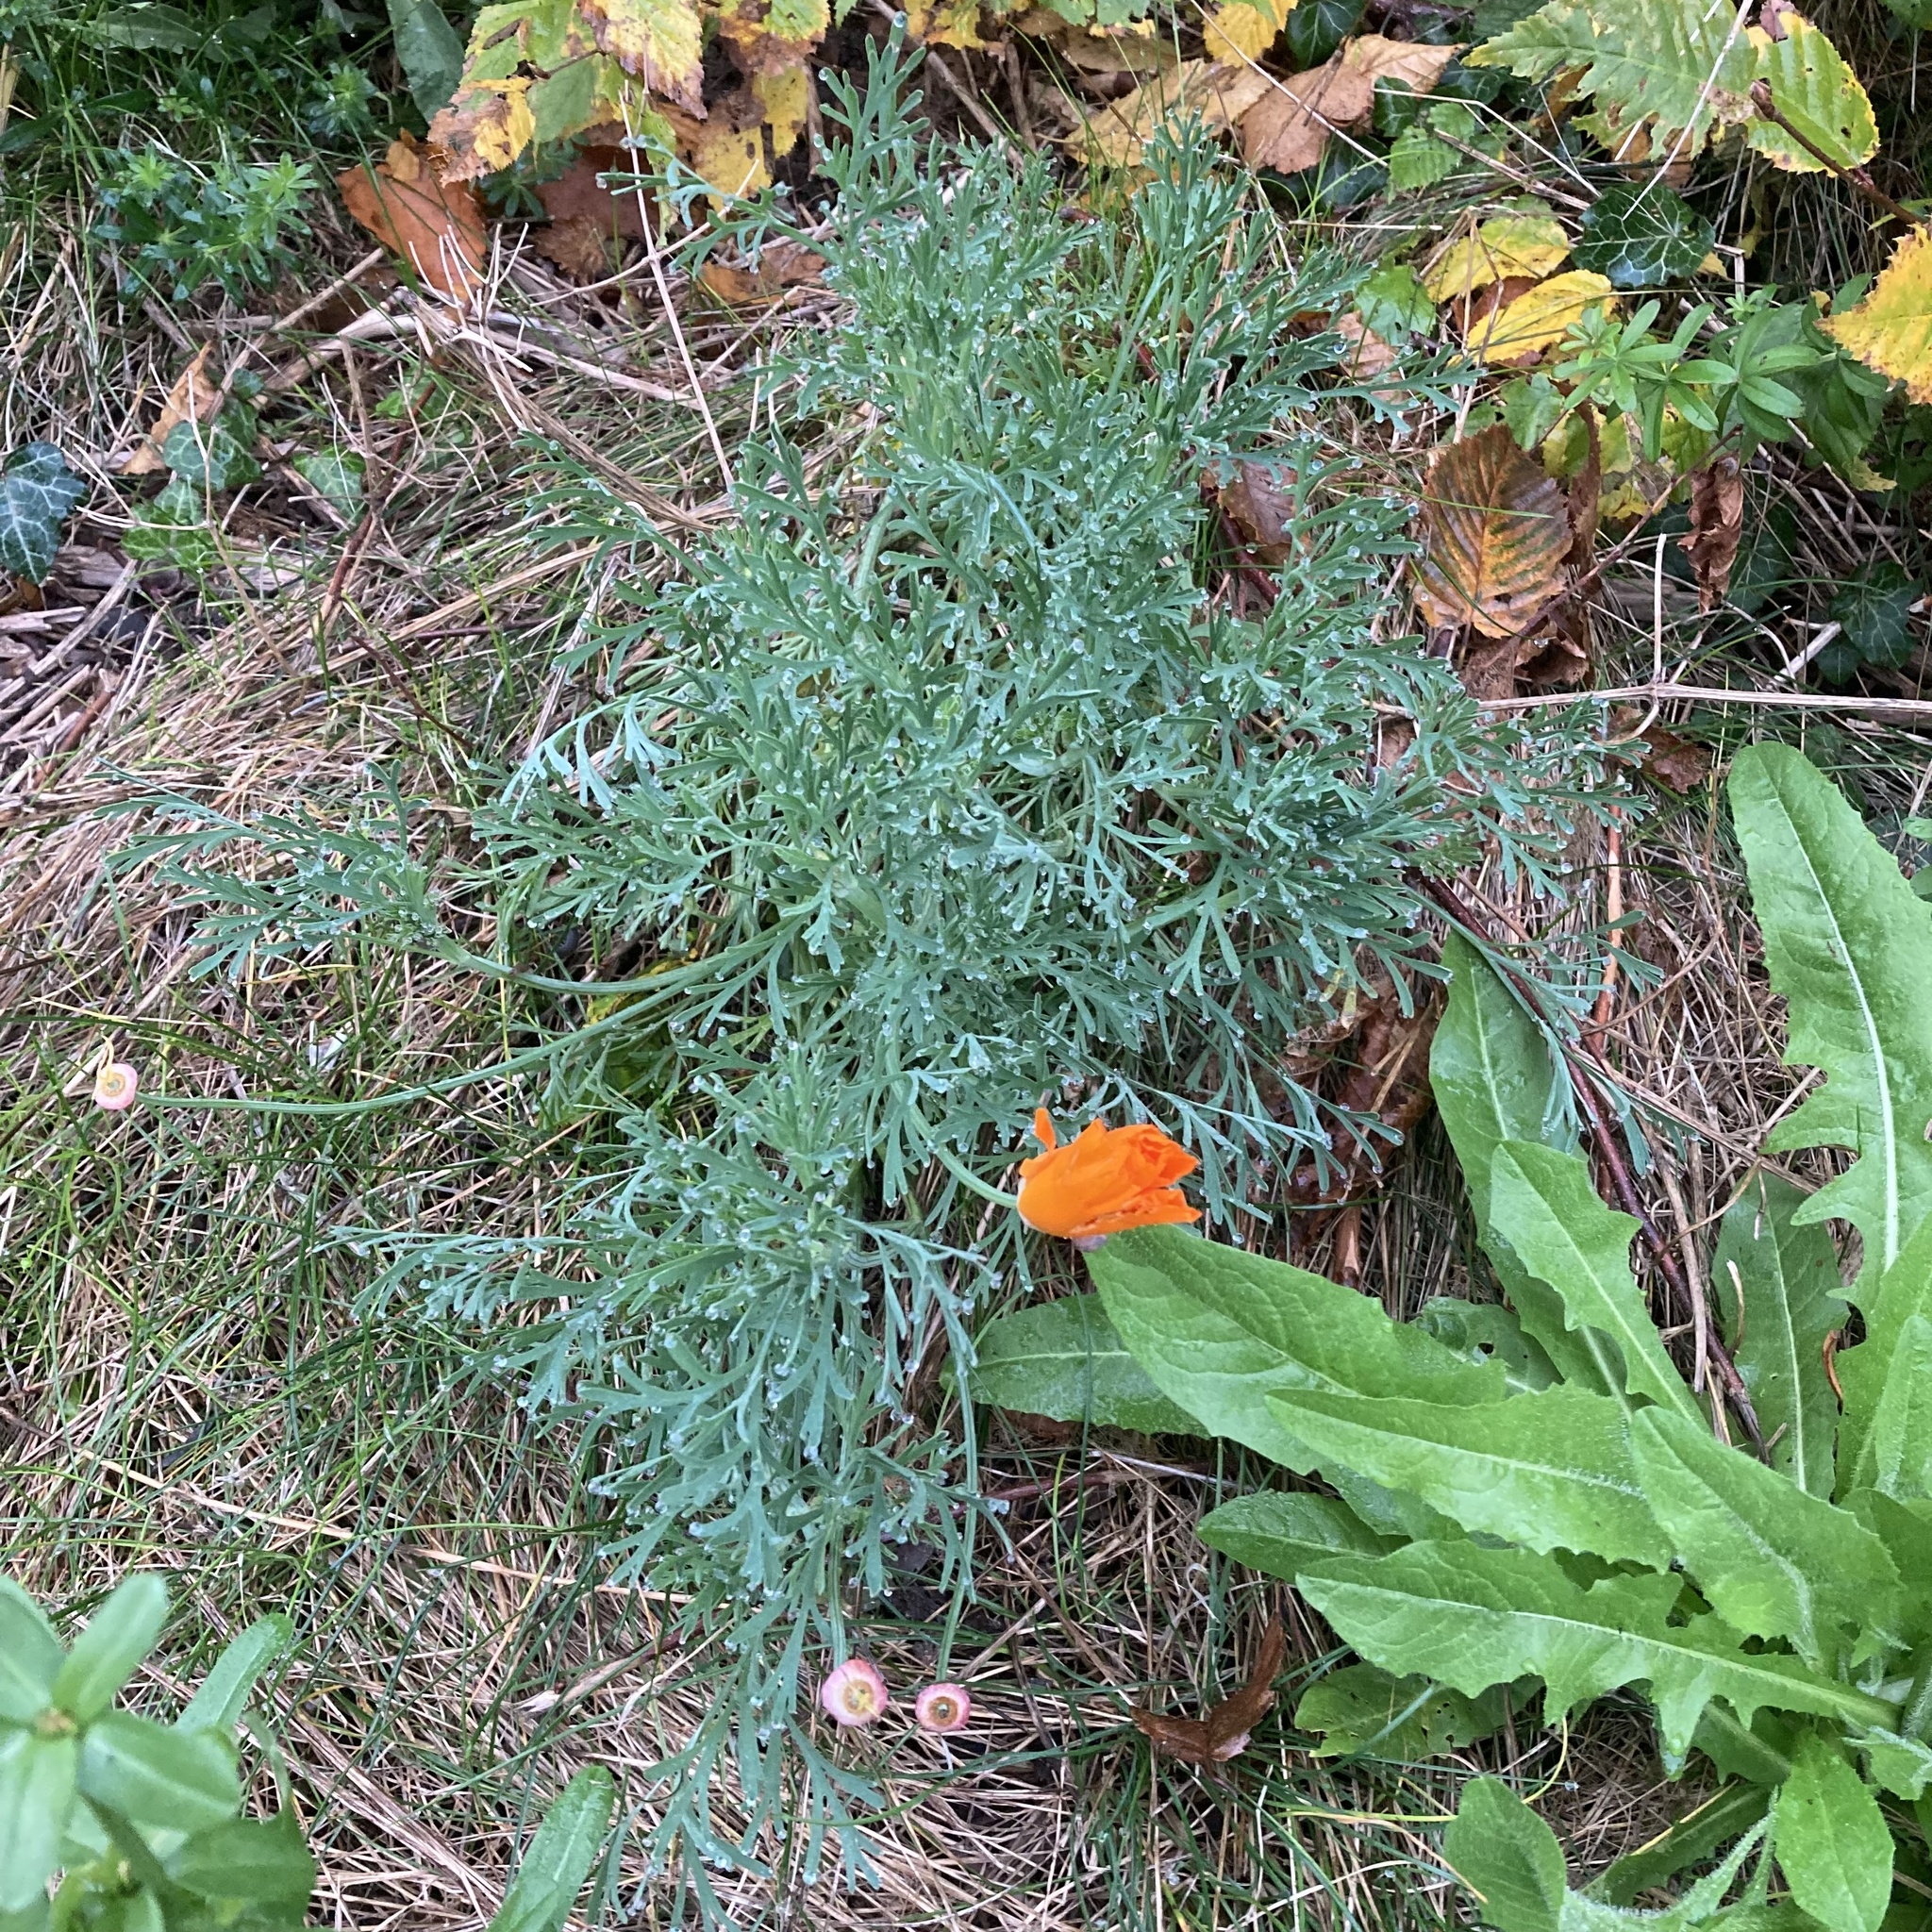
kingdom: Plantae
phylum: Tracheophyta
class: Magnoliopsida
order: Ranunculales
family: Papaveraceae
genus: Eschscholzia
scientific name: Eschscholzia californica
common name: California poppy
